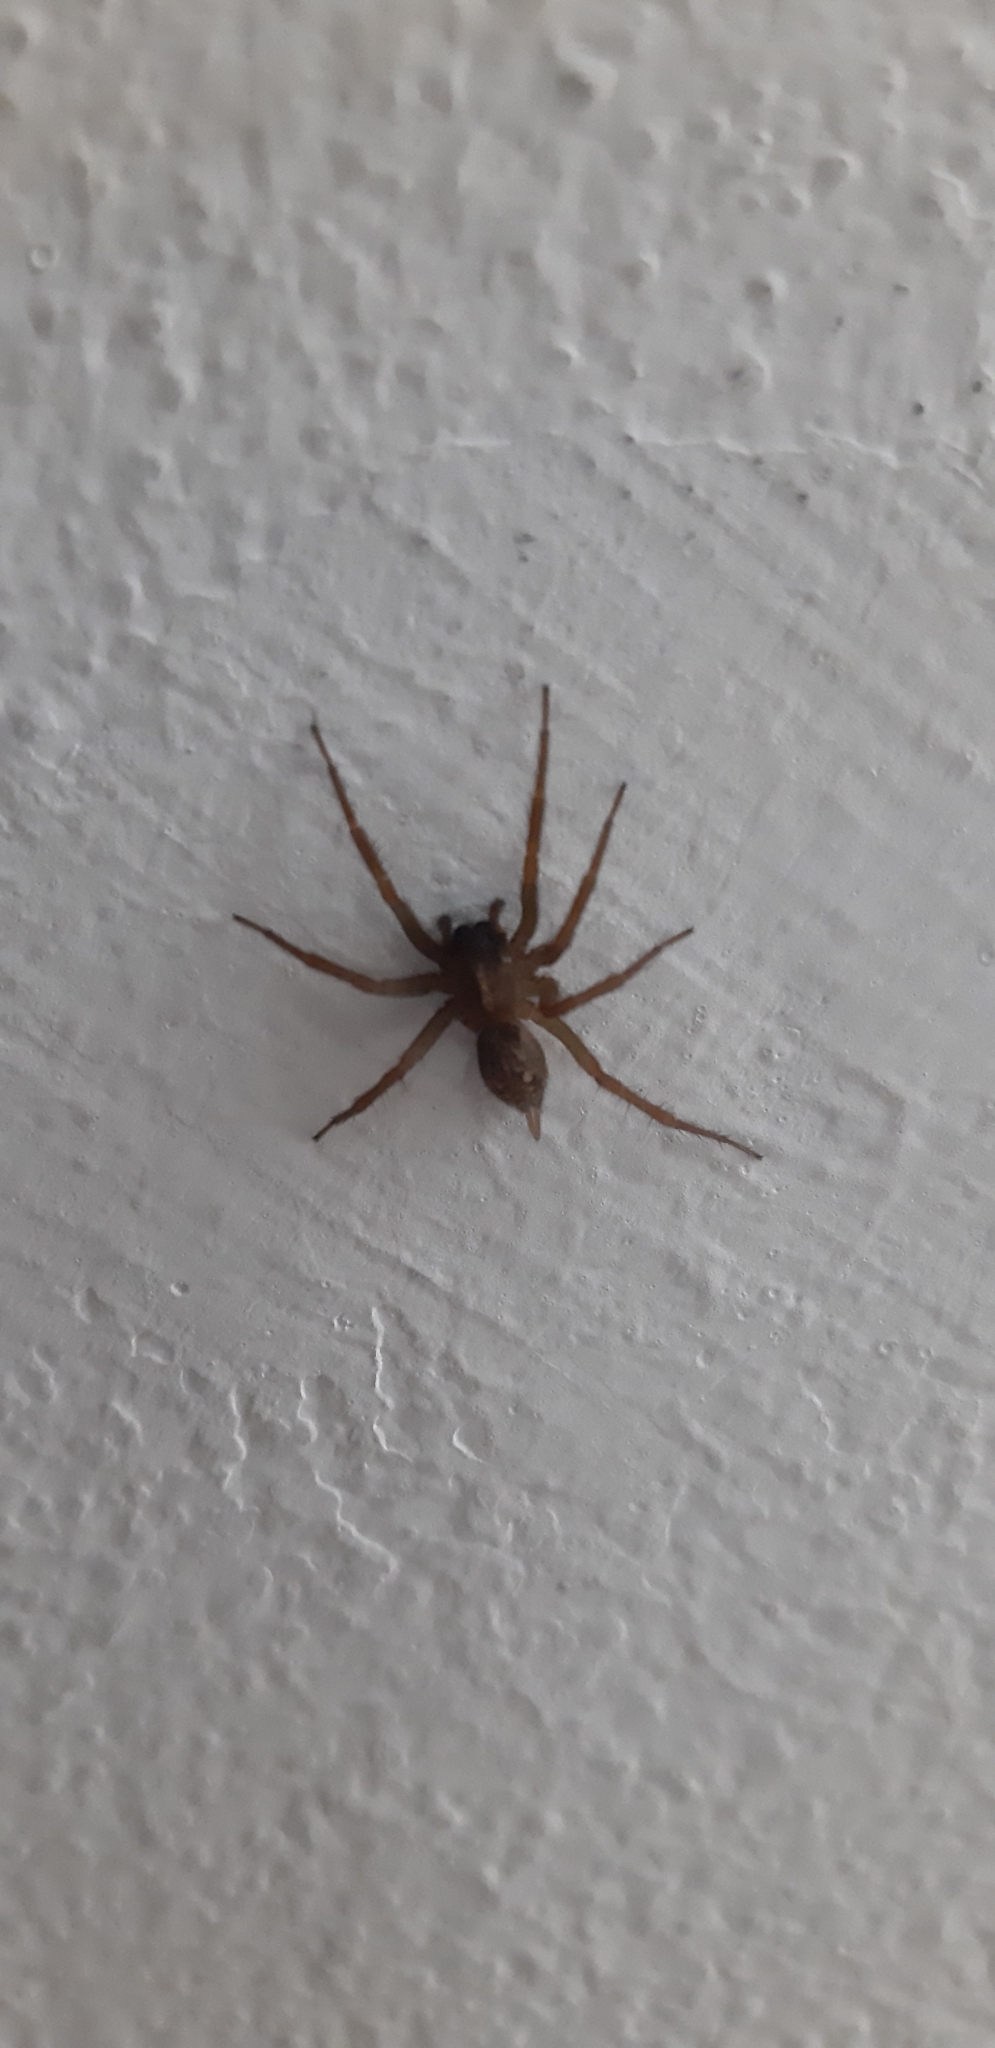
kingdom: Animalia
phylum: Arthropoda
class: Arachnida
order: Araneae
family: Agelenidae
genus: Lycosoides
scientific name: Lycosoides coarctata
